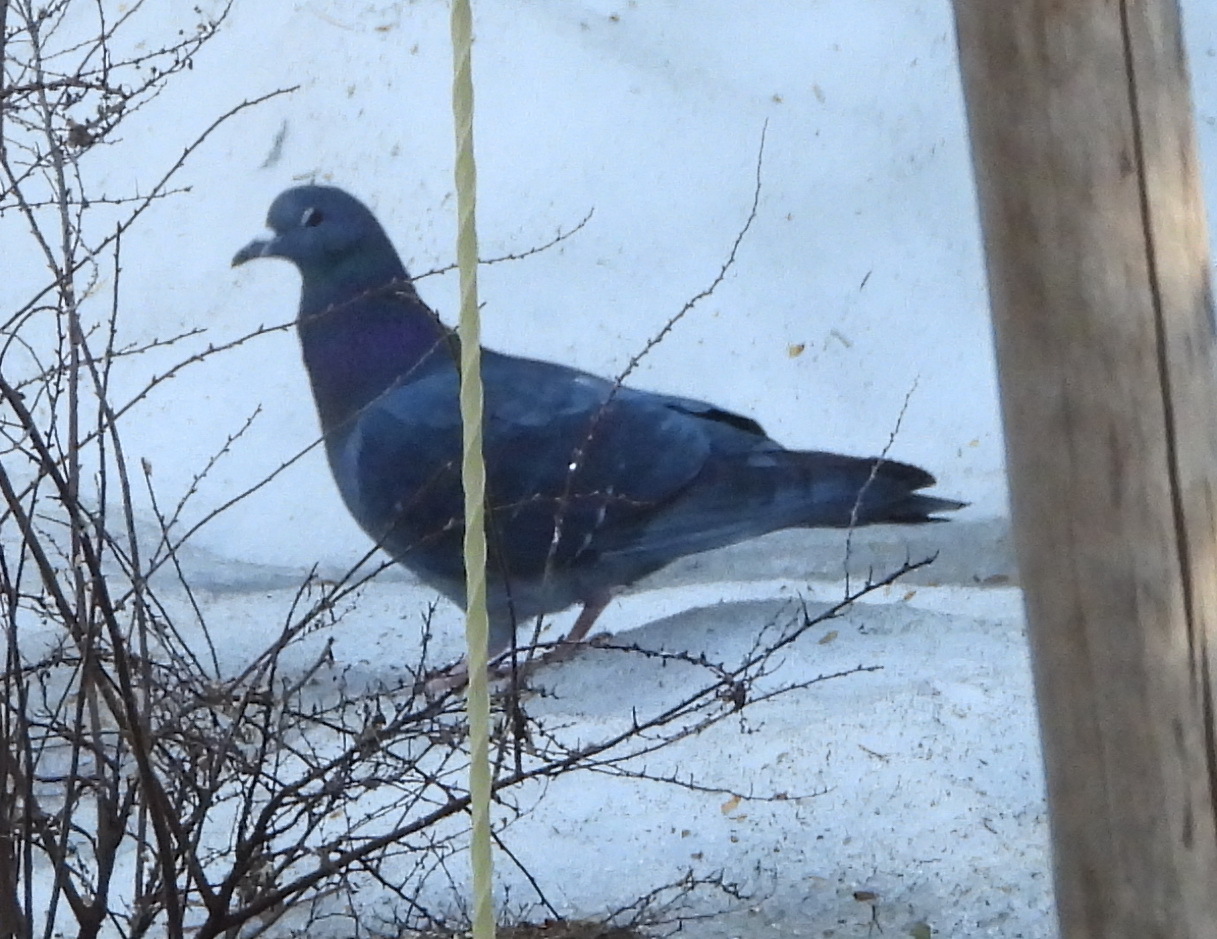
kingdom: Animalia
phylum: Chordata
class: Aves
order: Columbiformes
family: Columbidae
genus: Columba
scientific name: Columba livia
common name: Rock pigeon
